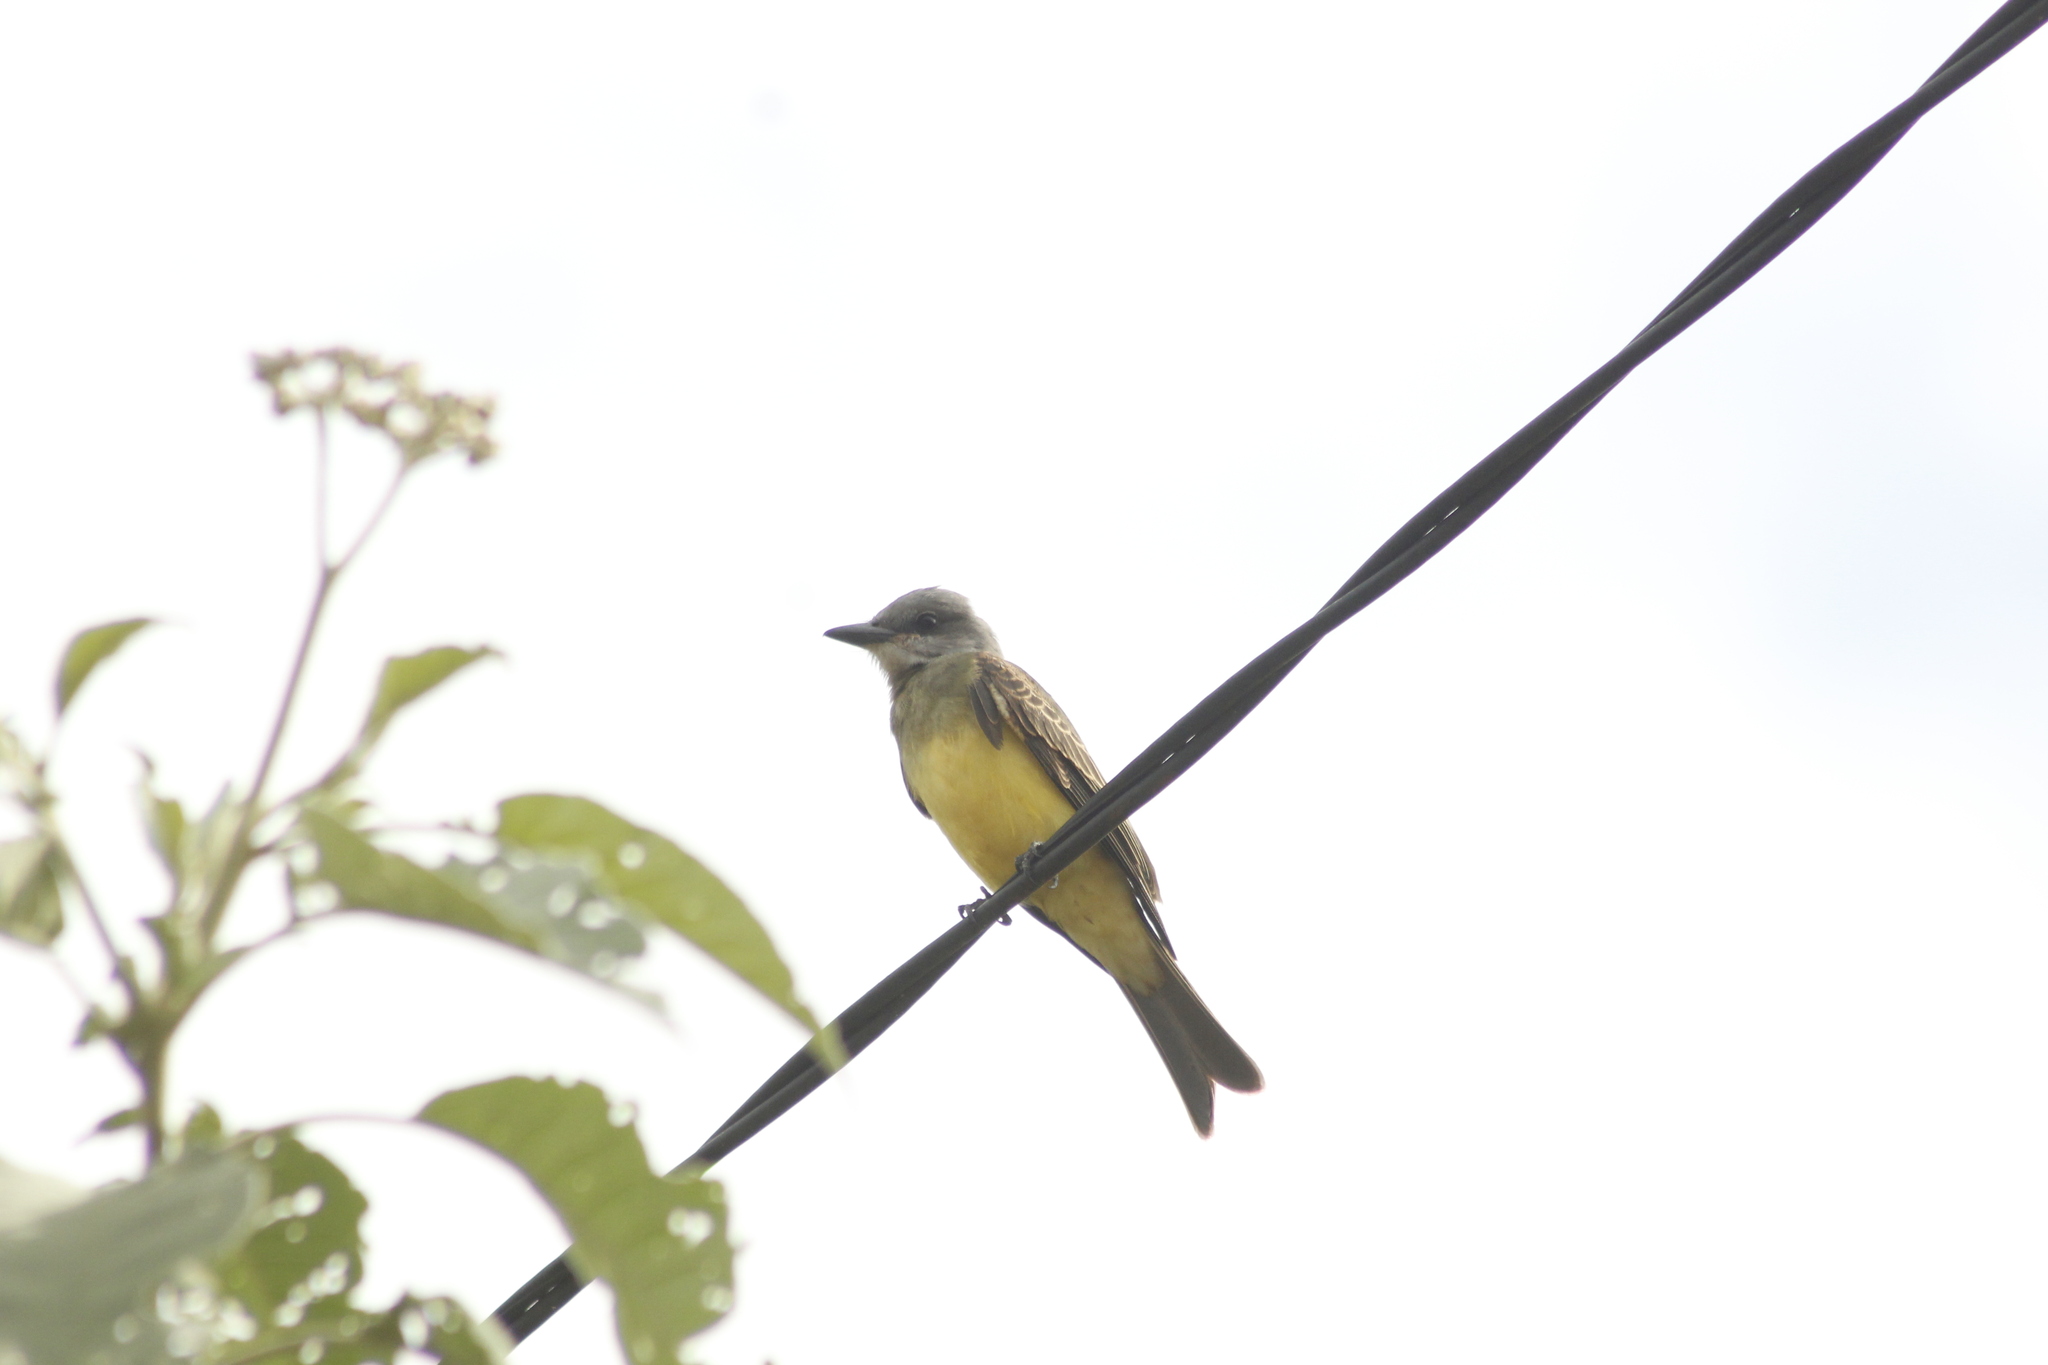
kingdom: Animalia
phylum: Chordata
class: Aves
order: Passeriformes
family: Tyrannidae
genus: Tyrannus
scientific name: Tyrannus melancholicus
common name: Tropical kingbird
